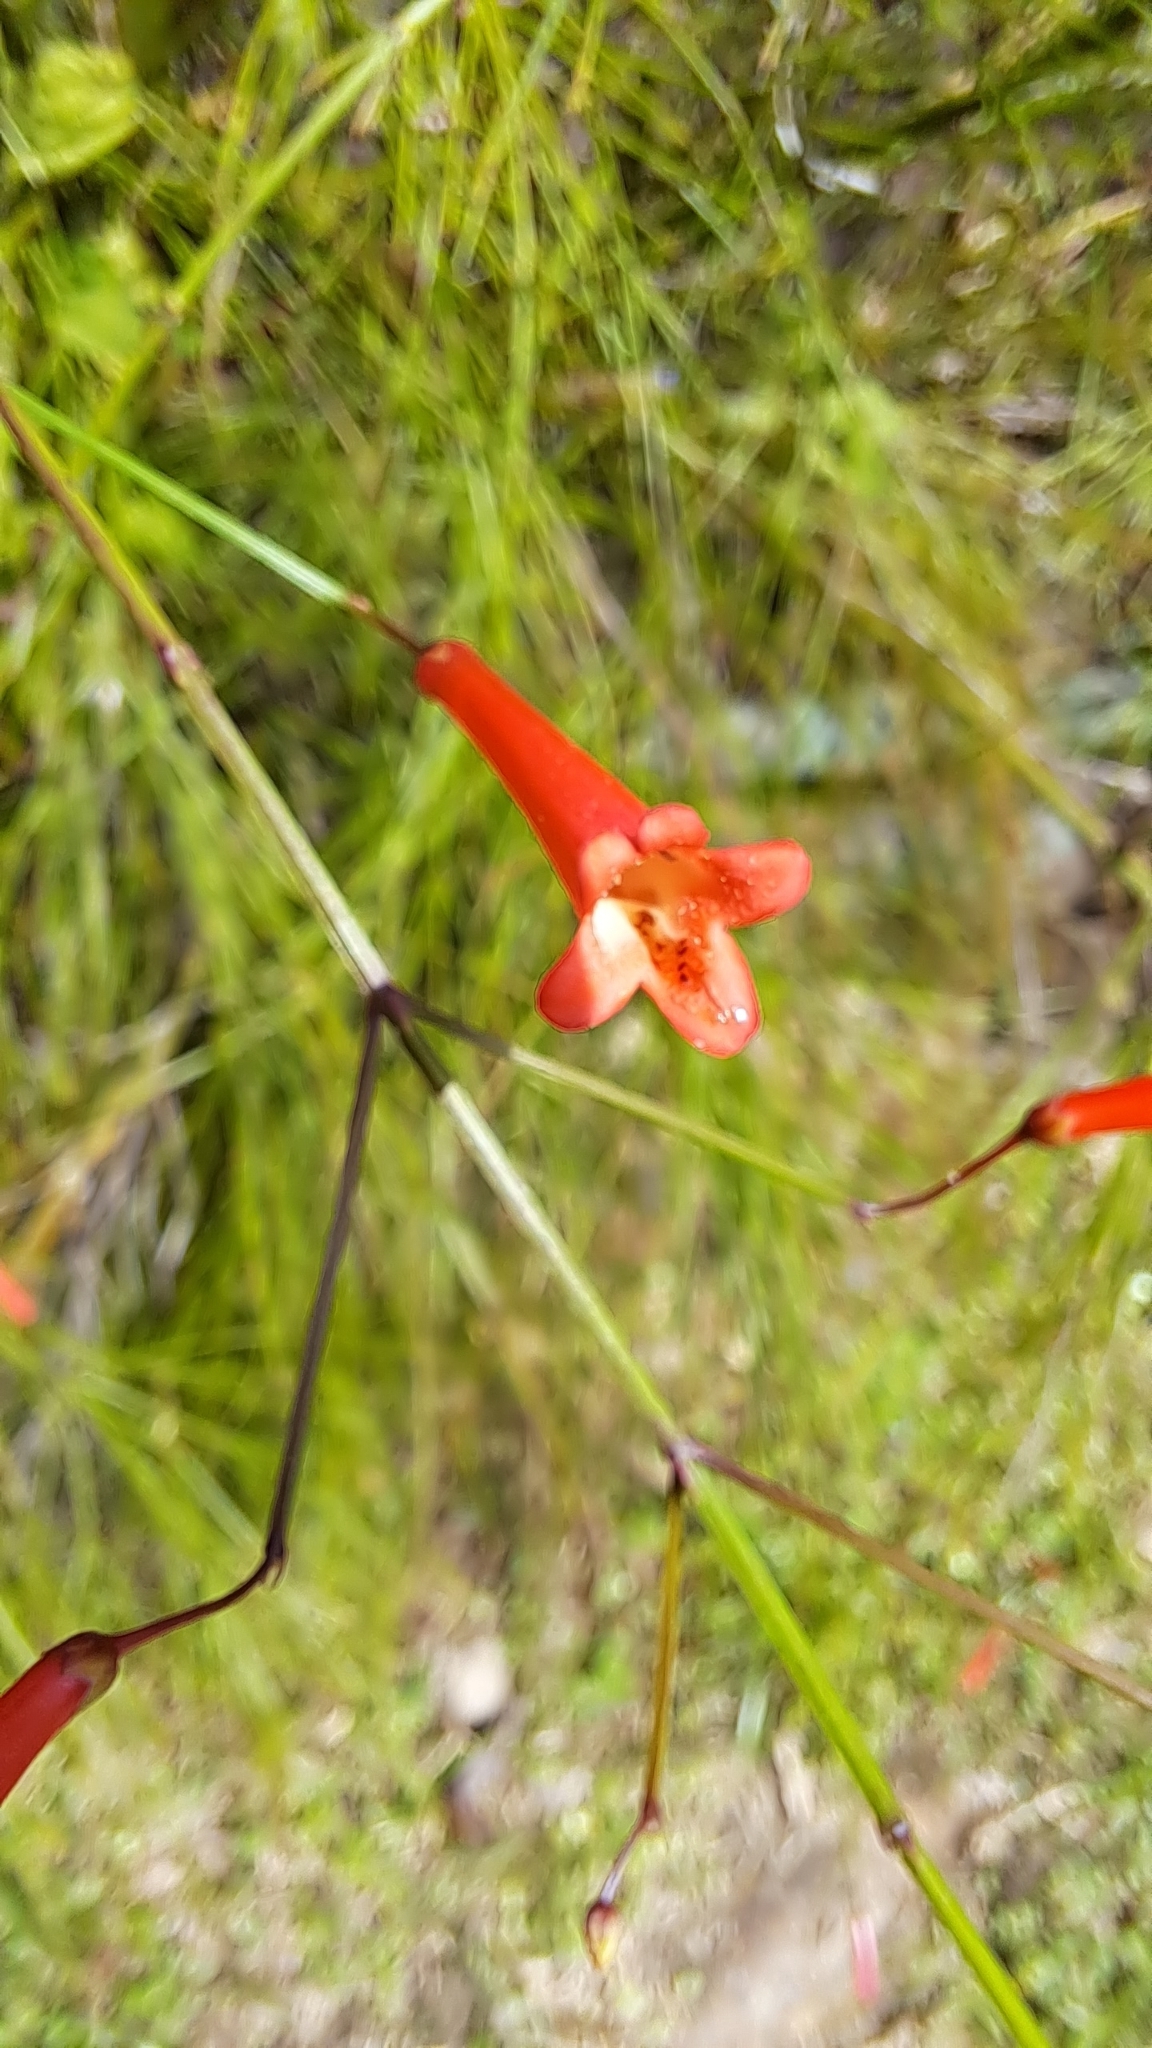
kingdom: Plantae
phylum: Tracheophyta
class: Magnoliopsida
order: Lamiales
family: Plantaginaceae
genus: Russelia
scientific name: Russelia equisetiformis
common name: Fountainbush
